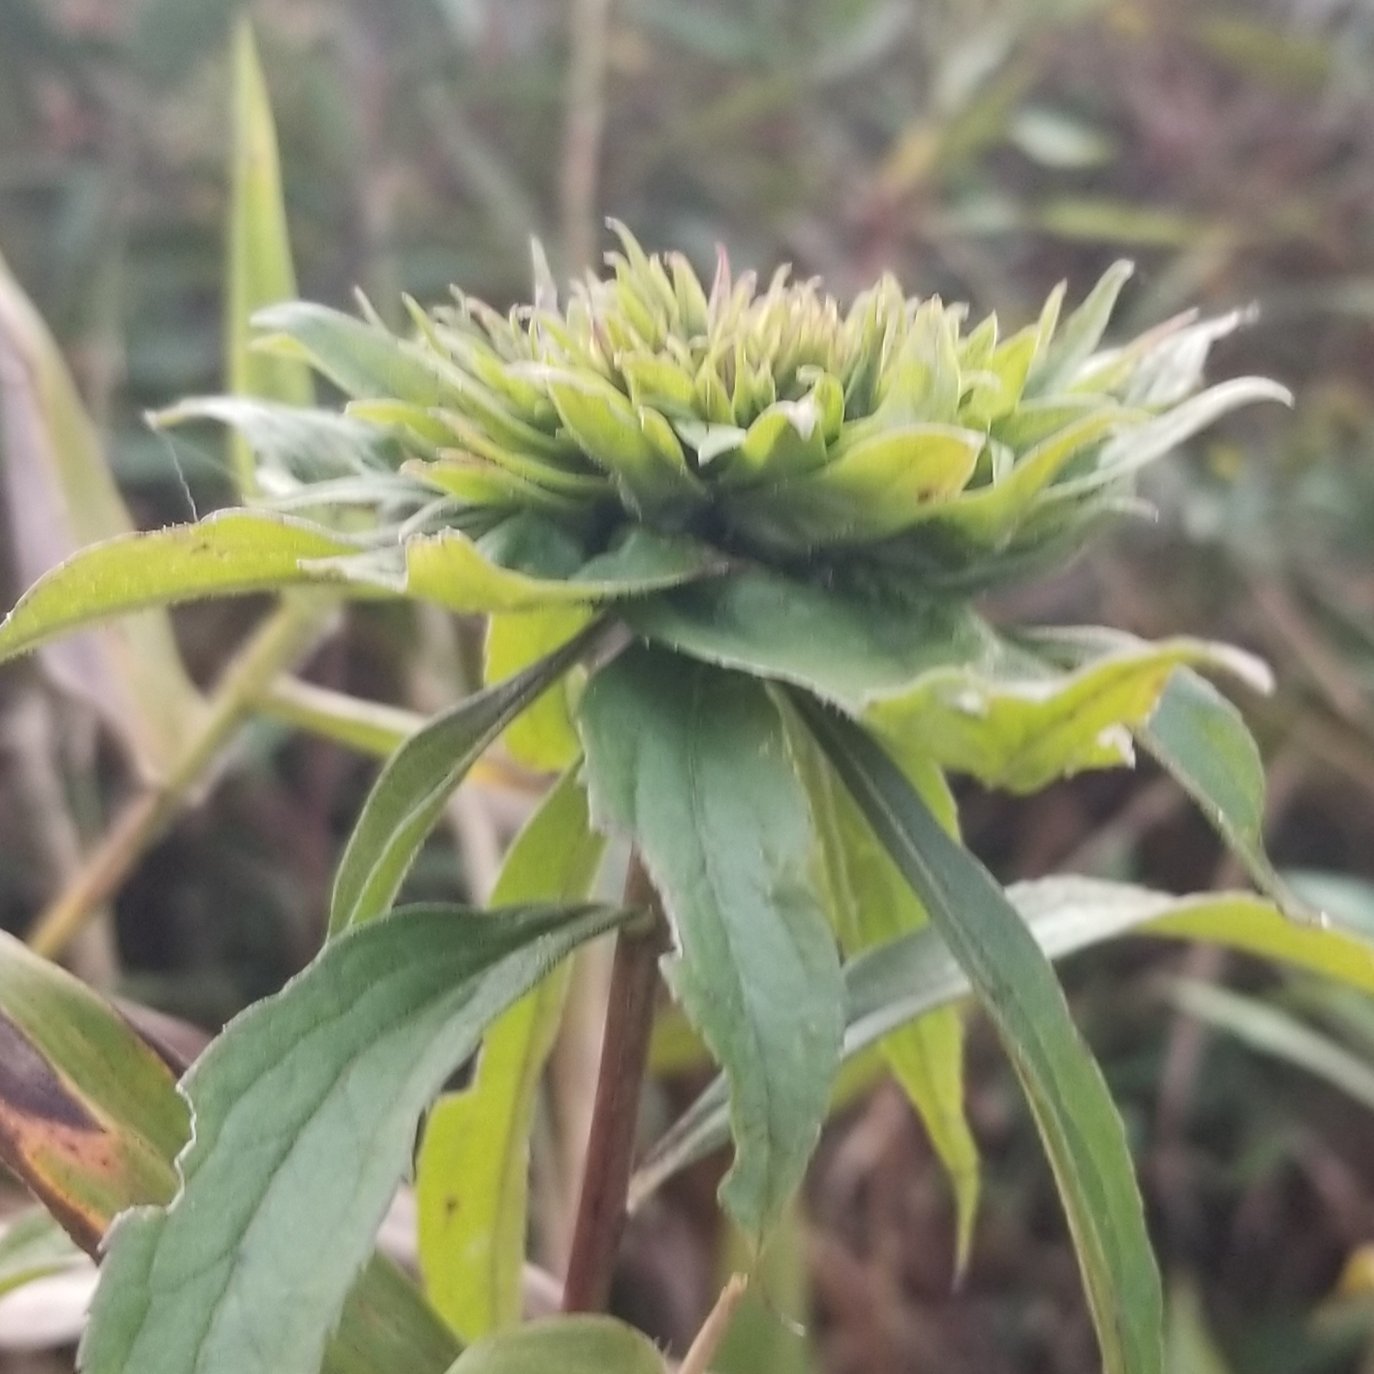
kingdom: Animalia
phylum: Arthropoda
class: Insecta
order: Diptera
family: Cecidomyiidae
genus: Rhopalomyia
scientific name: Rhopalomyia capitata
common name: Giant goldenrod bunch gall midge
